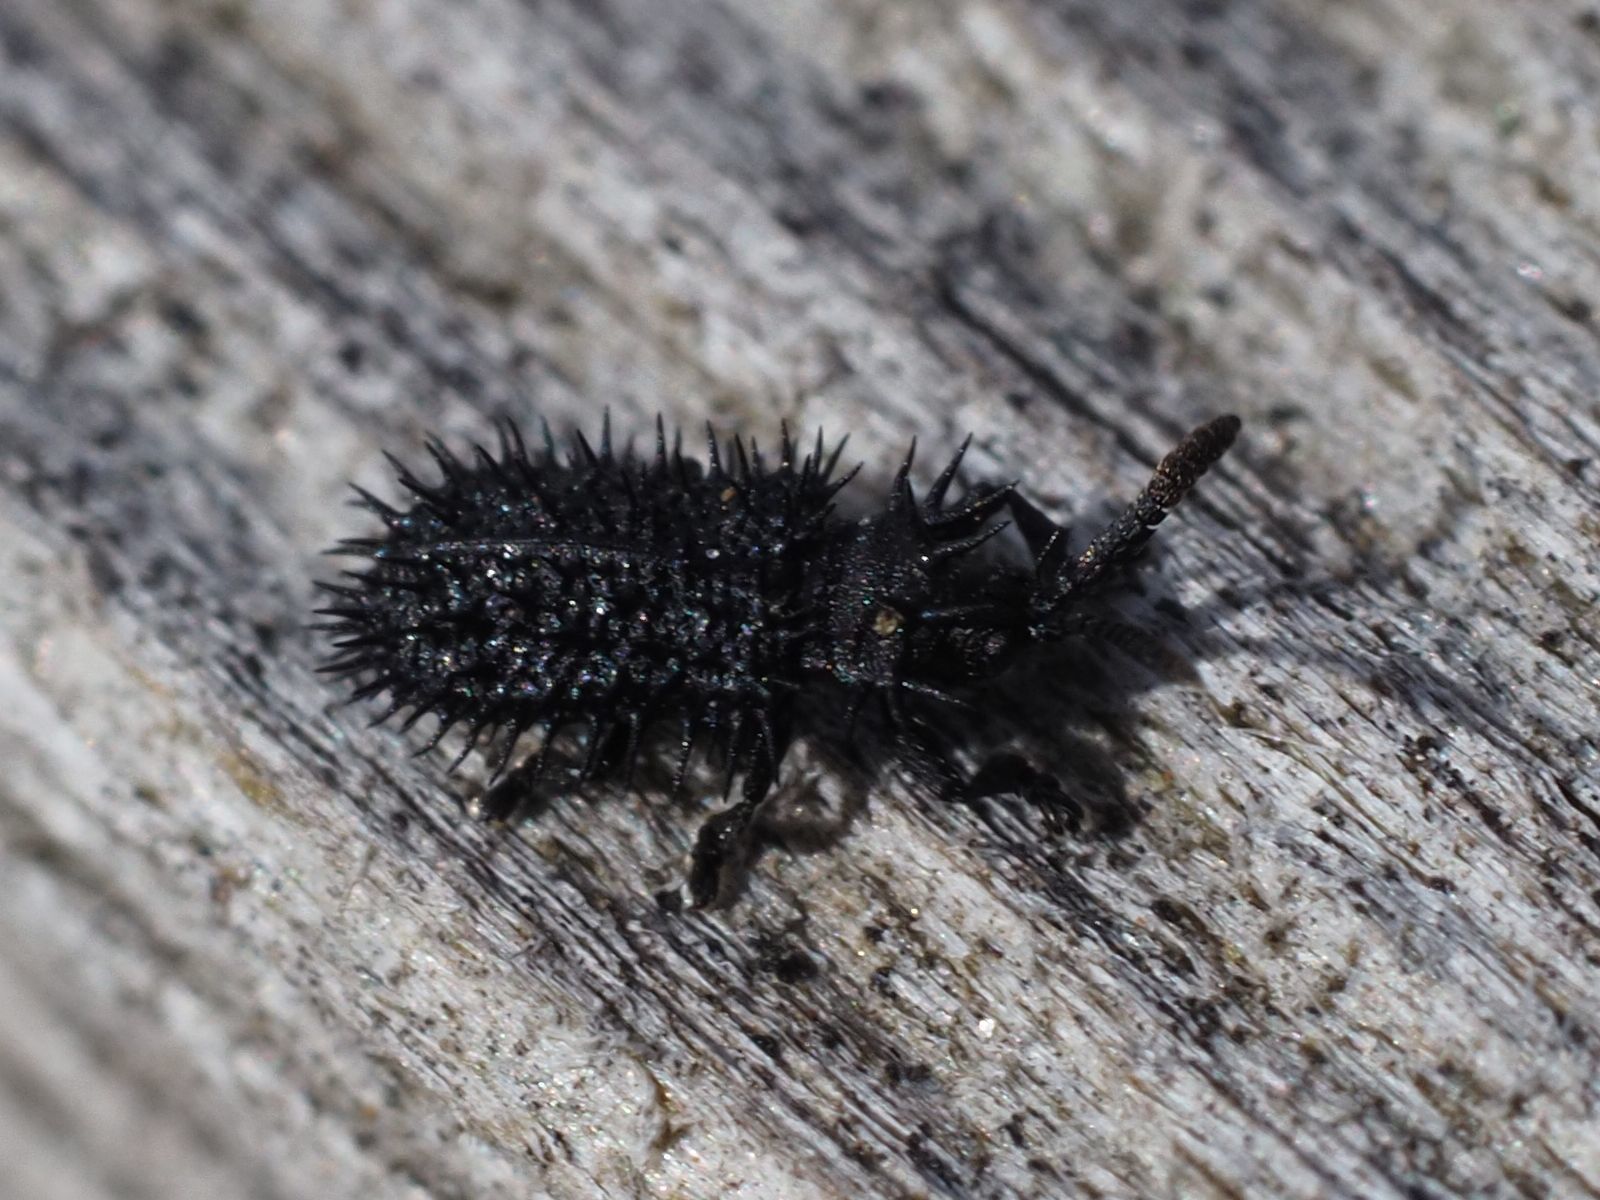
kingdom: Animalia
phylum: Arthropoda
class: Insecta
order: Coleoptera
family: Chrysomelidae
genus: Hispa
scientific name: Hispa atra
